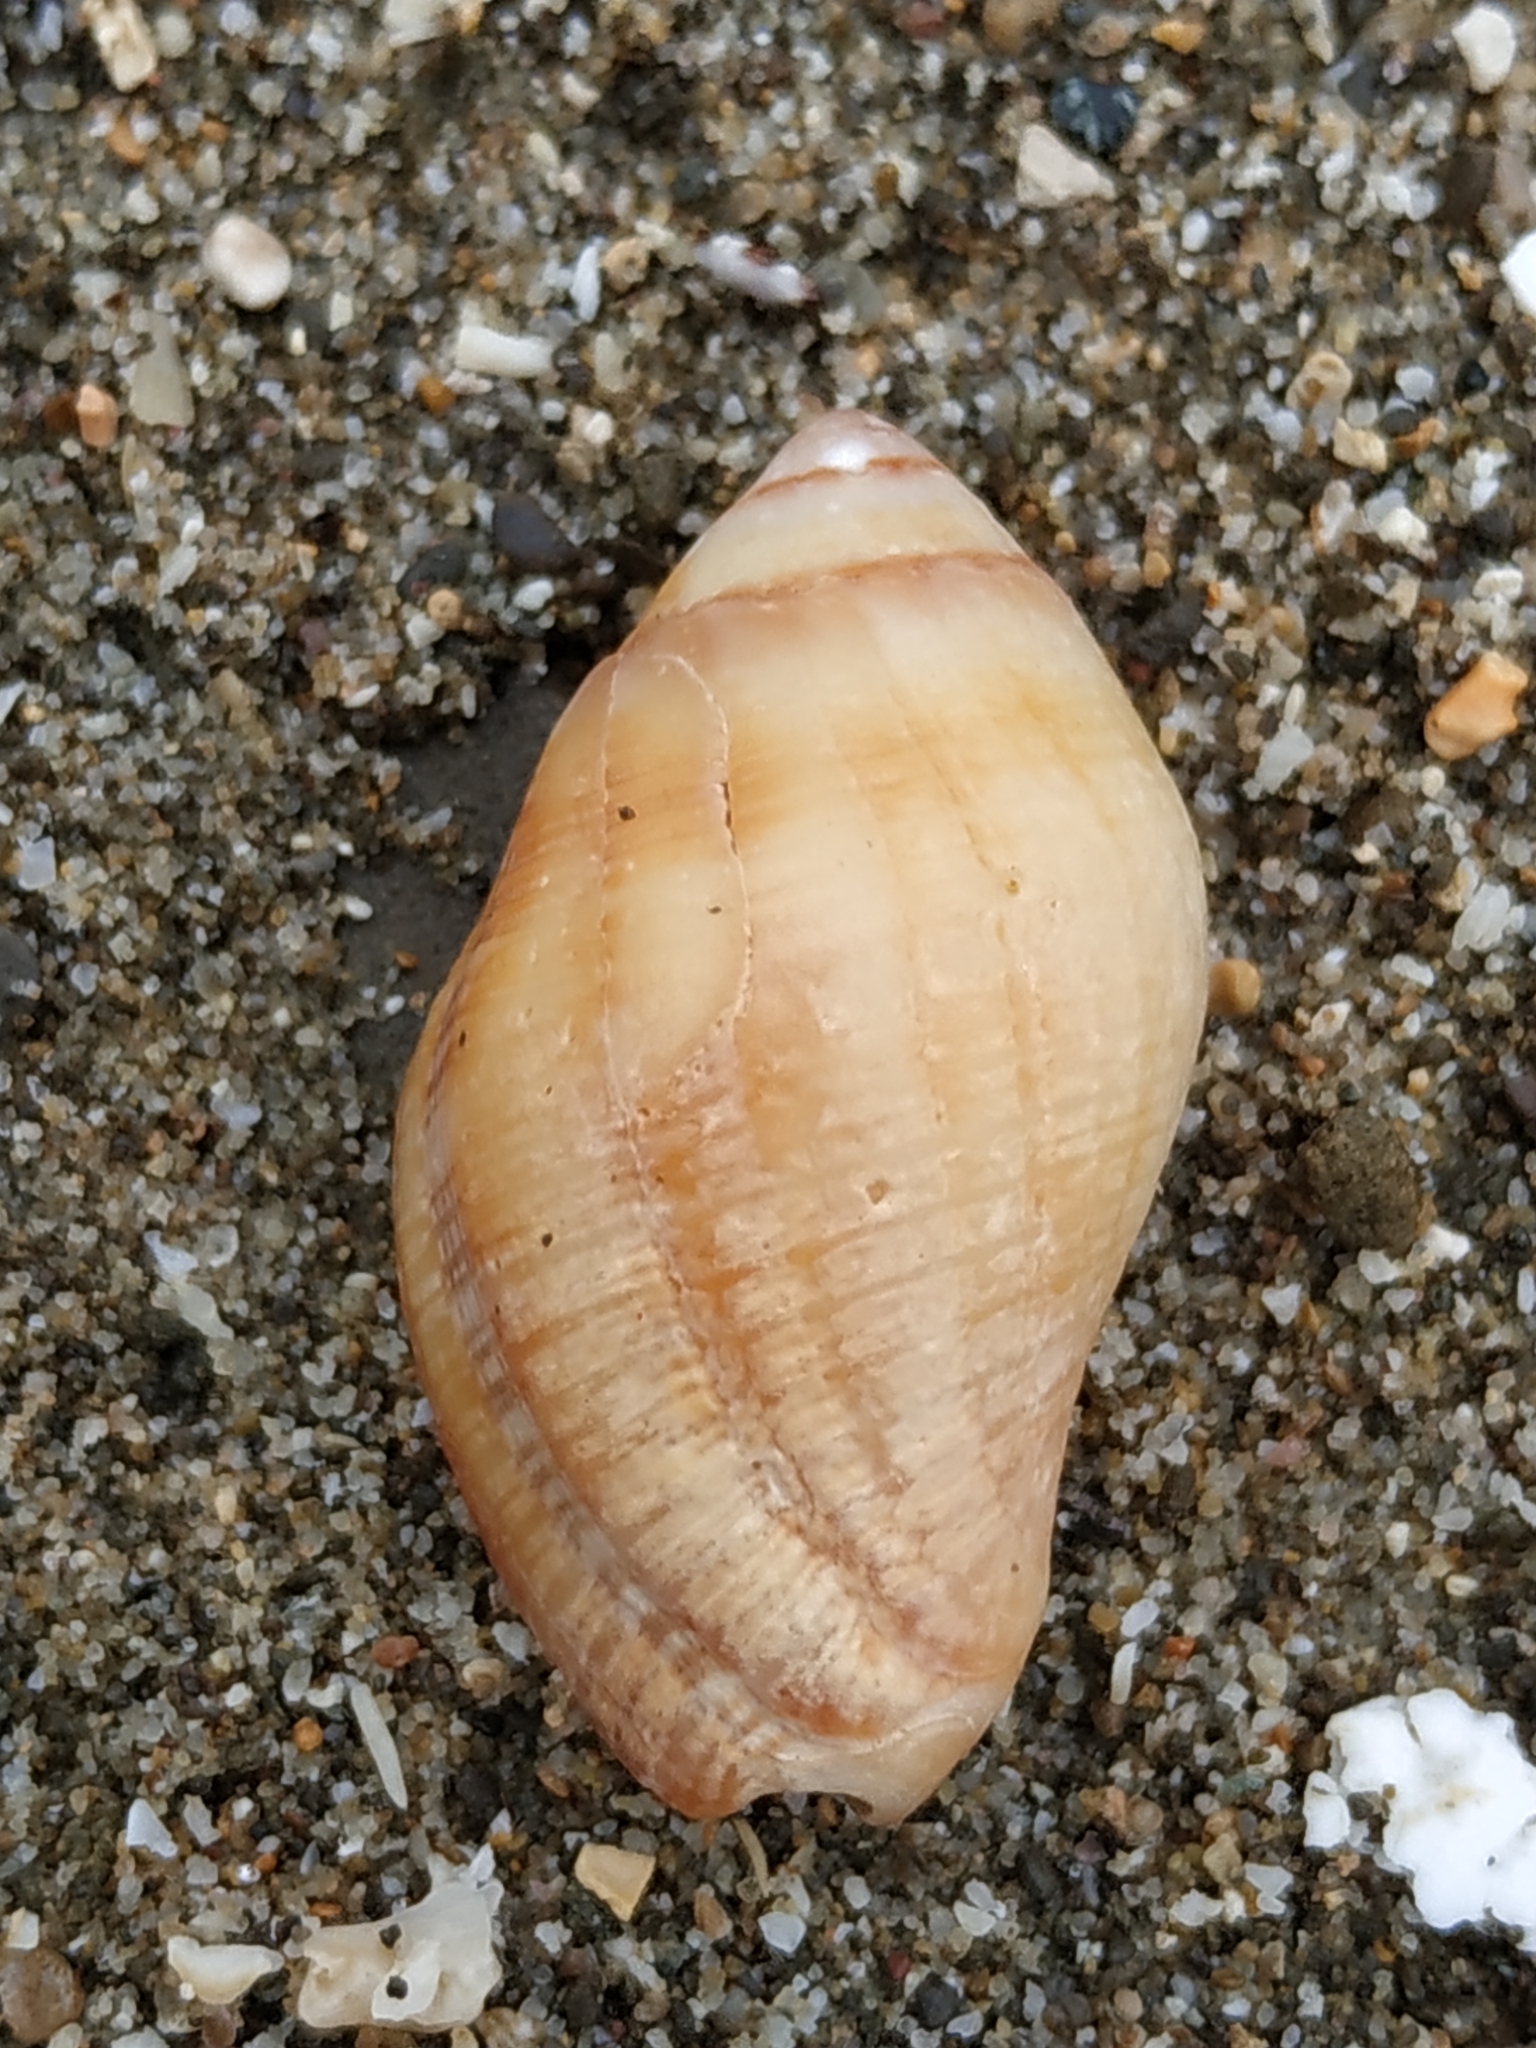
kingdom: Animalia
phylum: Mollusca
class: Gastropoda
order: Neogastropoda
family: Muricidae
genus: Nassa
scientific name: Nassa serta
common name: Sertum rock shell
